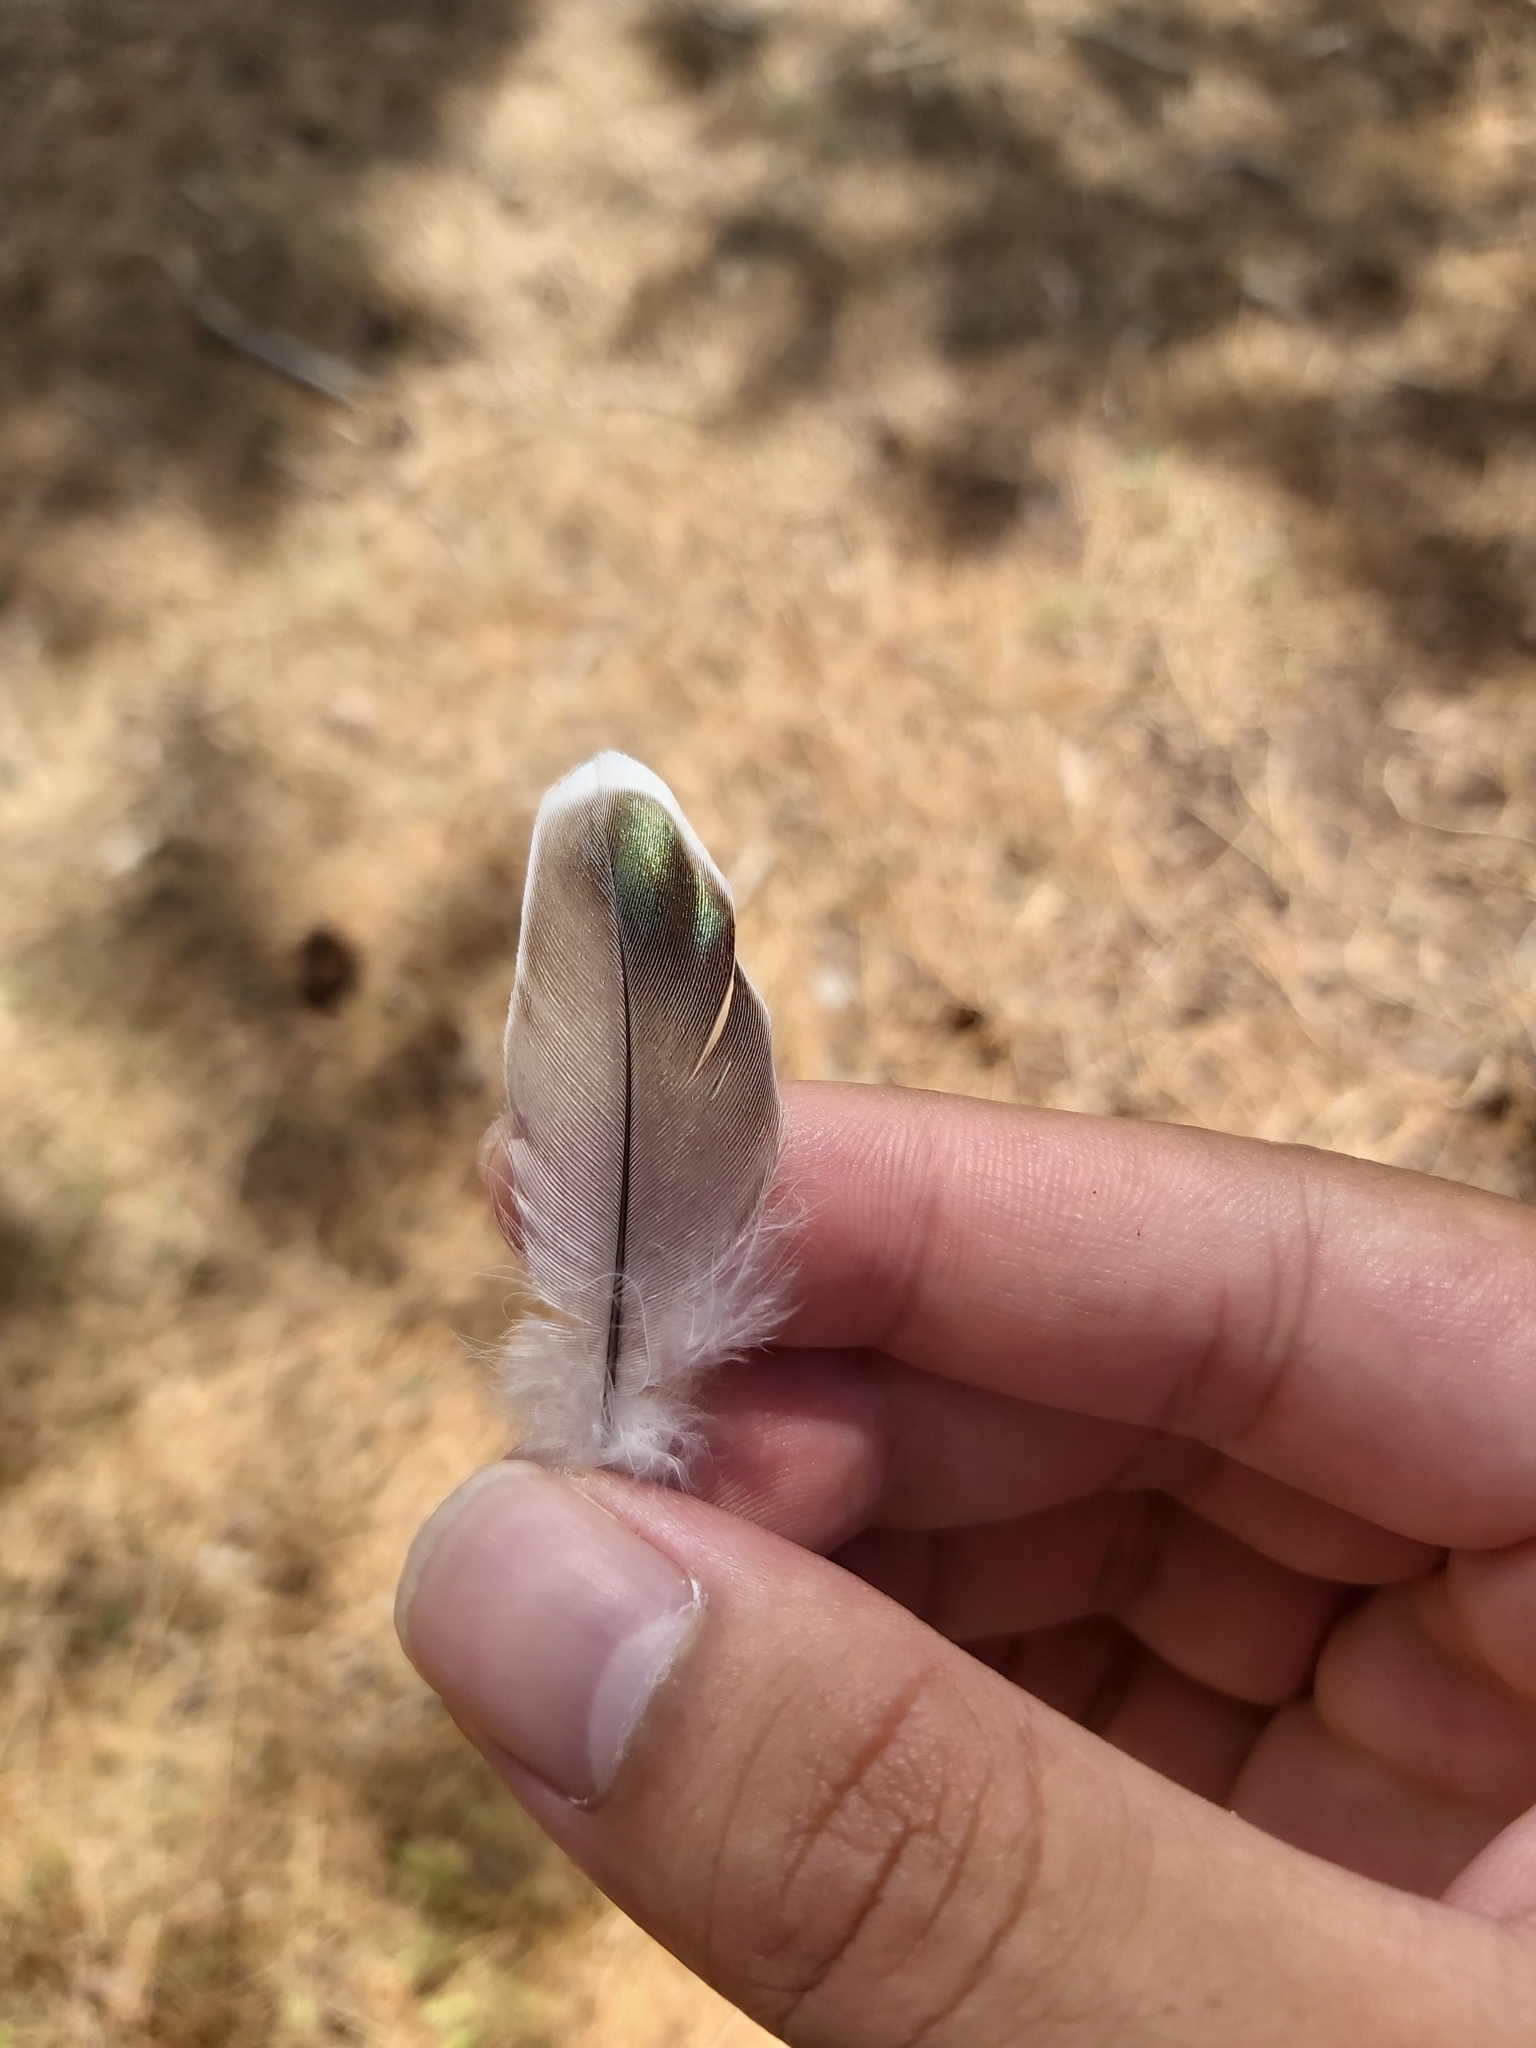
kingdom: Animalia
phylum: Chordata
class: Aves
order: Columbiformes
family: Columbidae
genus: Ocyphaps
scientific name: Ocyphaps lophotes
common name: Crested pigeon
